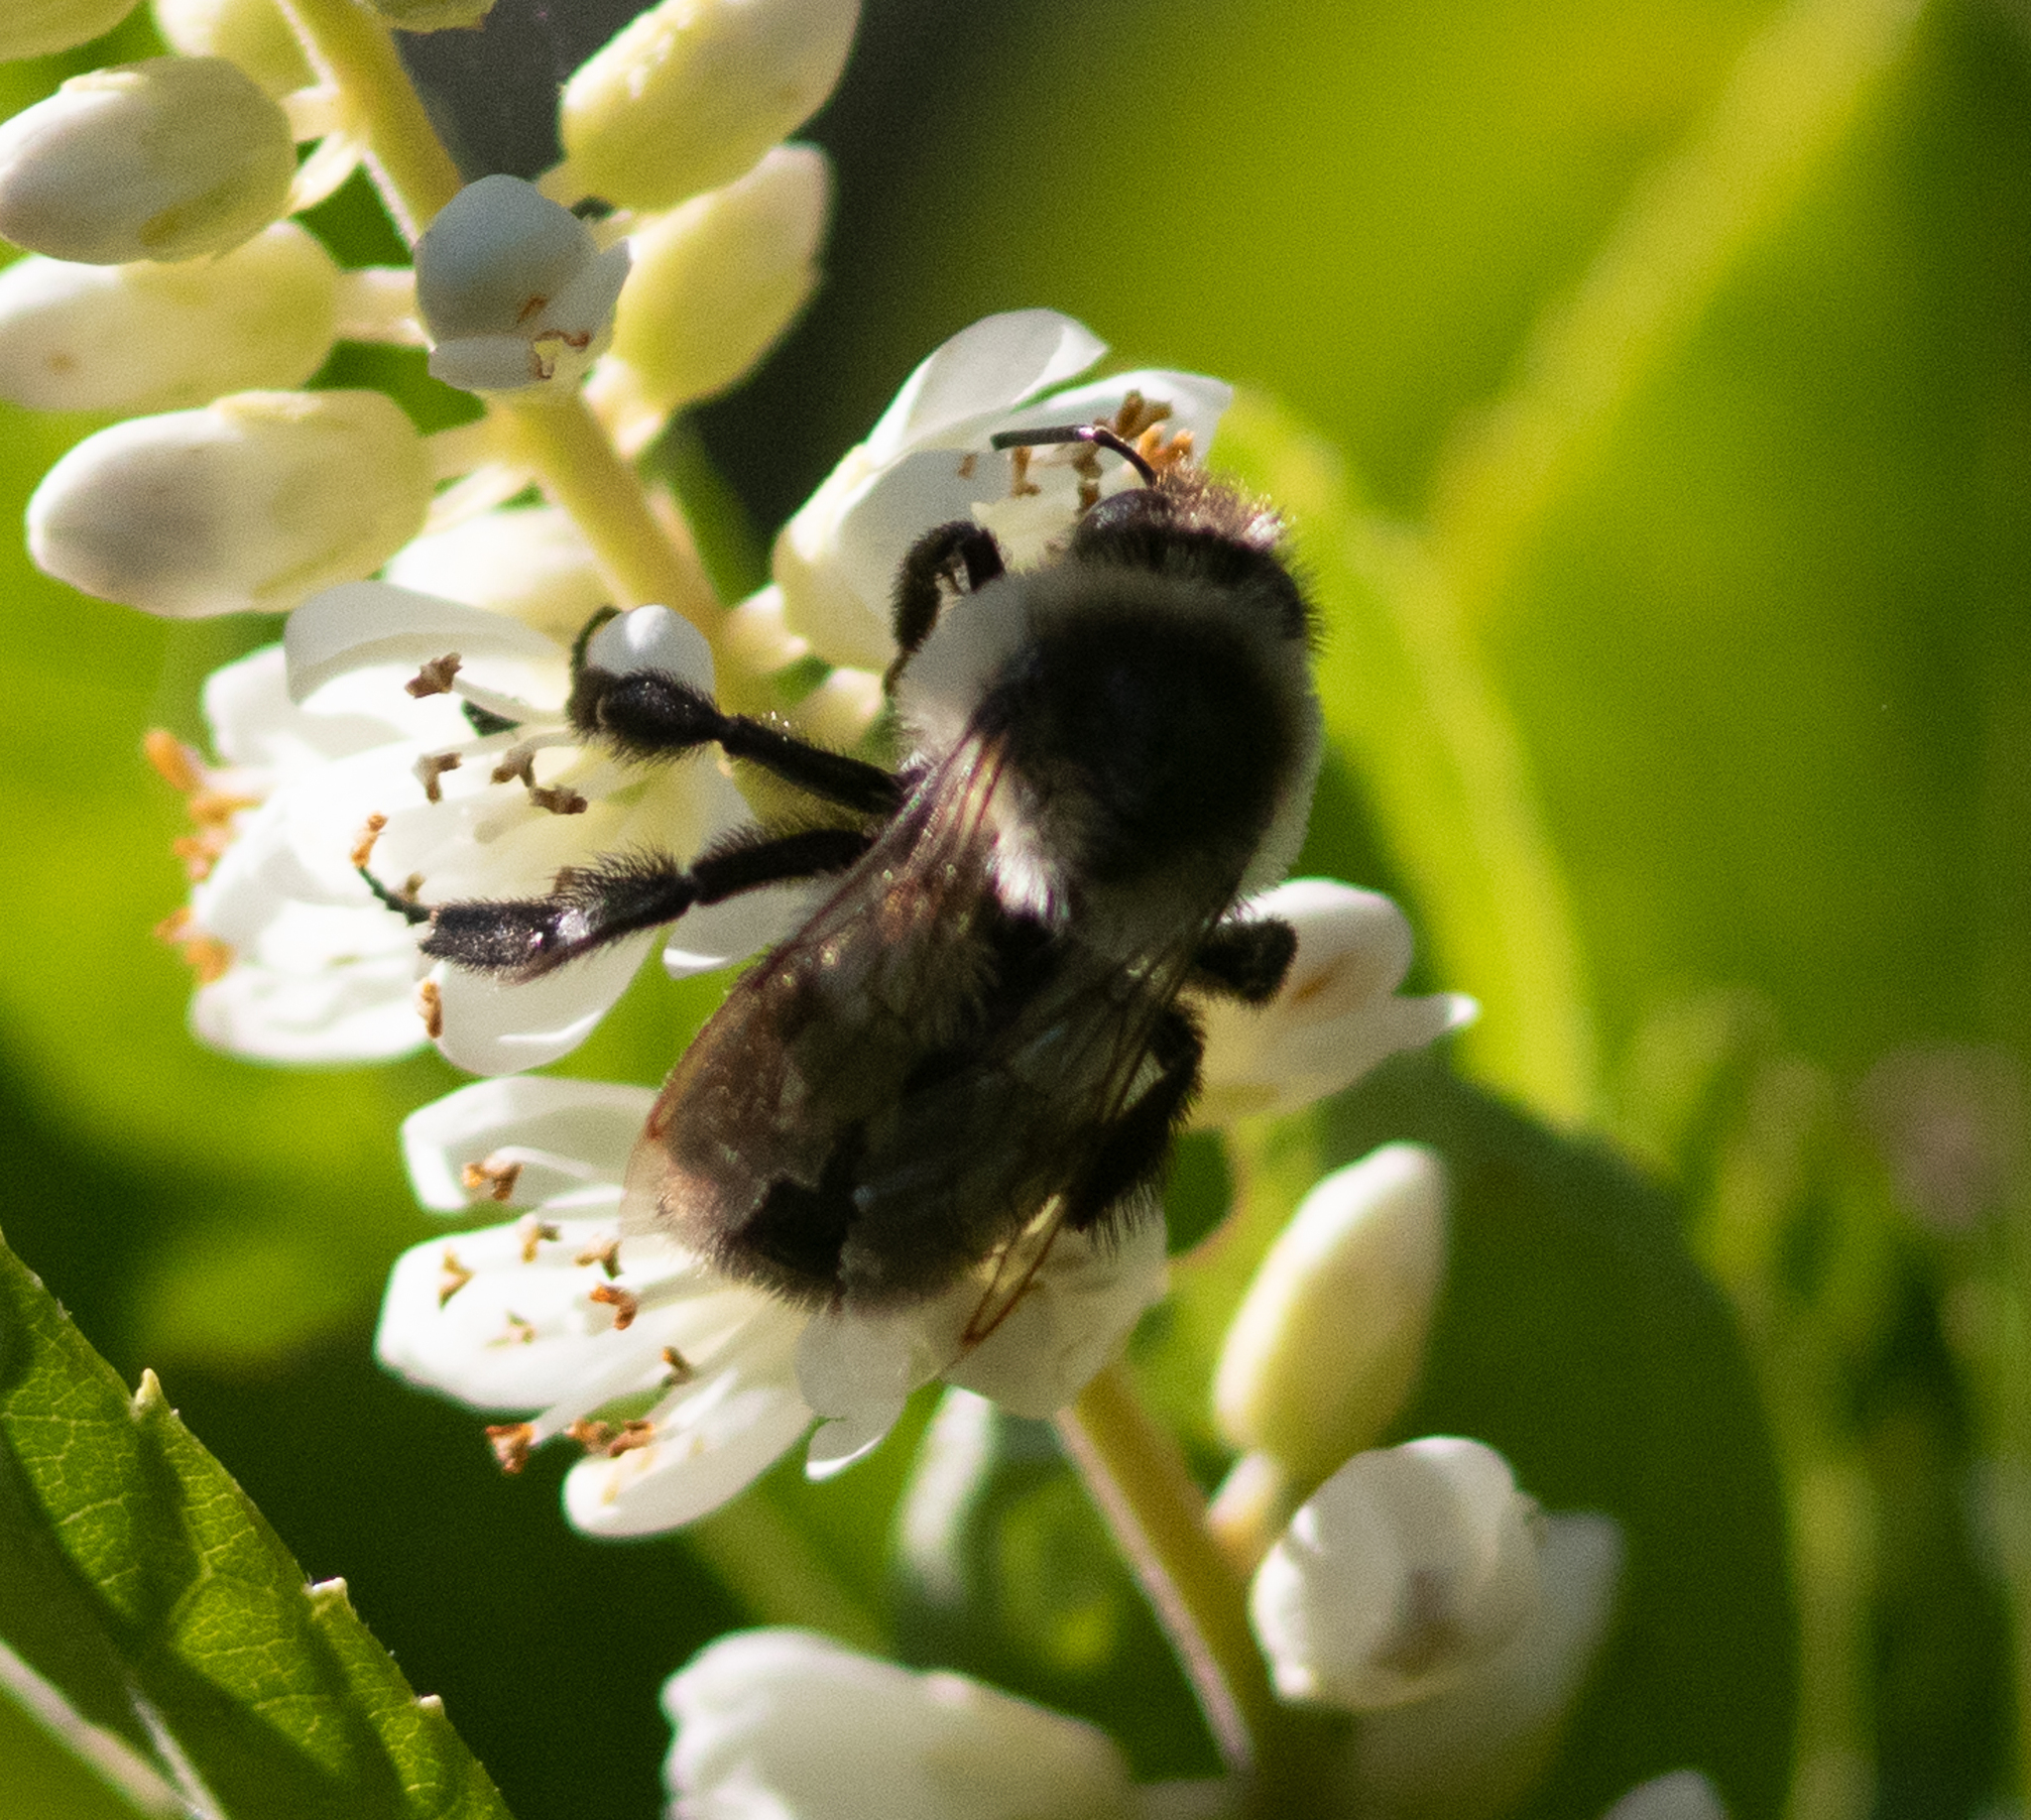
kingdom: Animalia
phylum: Arthropoda
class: Insecta
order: Hymenoptera
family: Apidae
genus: Bombus
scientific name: Bombus impatiens
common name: Common eastern bumble bee
